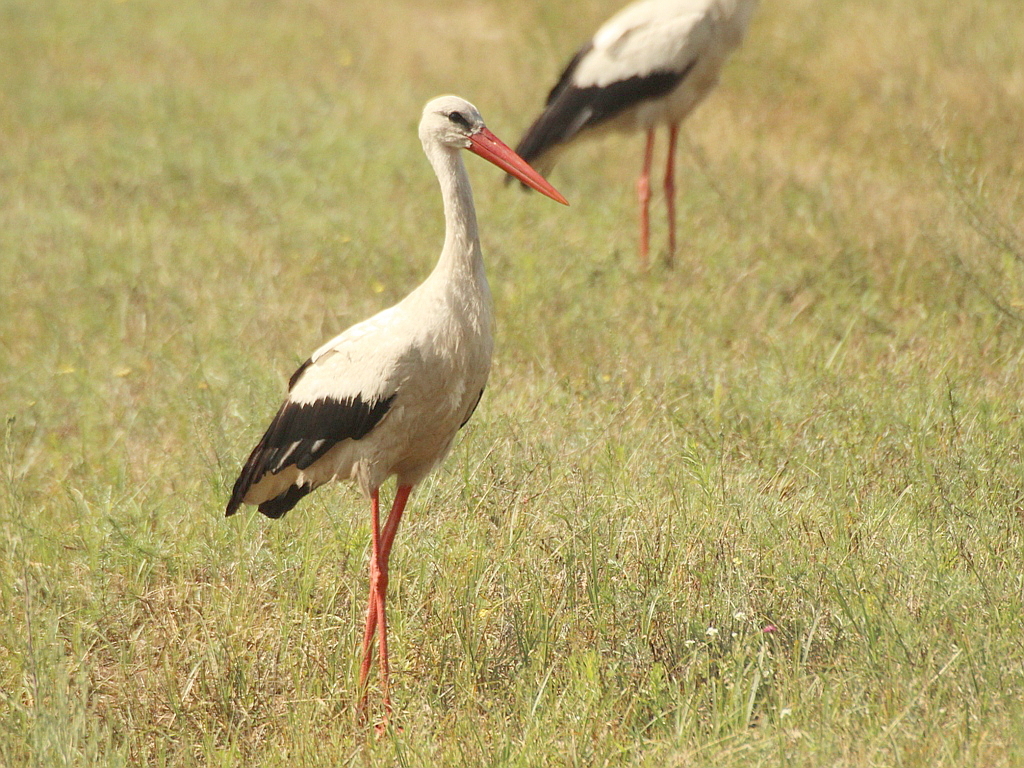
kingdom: Animalia
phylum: Chordata
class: Aves
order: Ciconiiformes
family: Ciconiidae
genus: Ciconia
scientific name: Ciconia ciconia
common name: White stork
